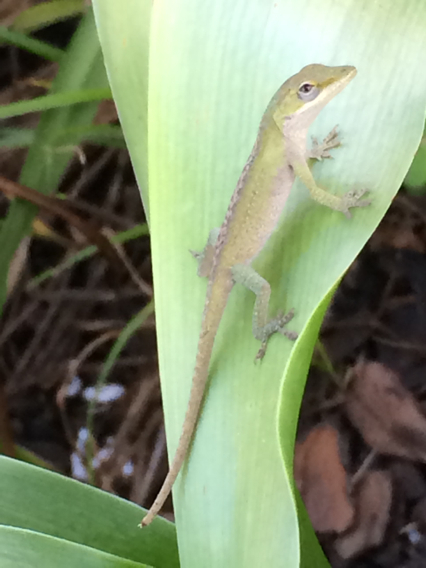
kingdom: Animalia
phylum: Chordata
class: Squamata
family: Dactyloidae
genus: Anolis
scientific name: Anolis carolinensis
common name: Green anole
